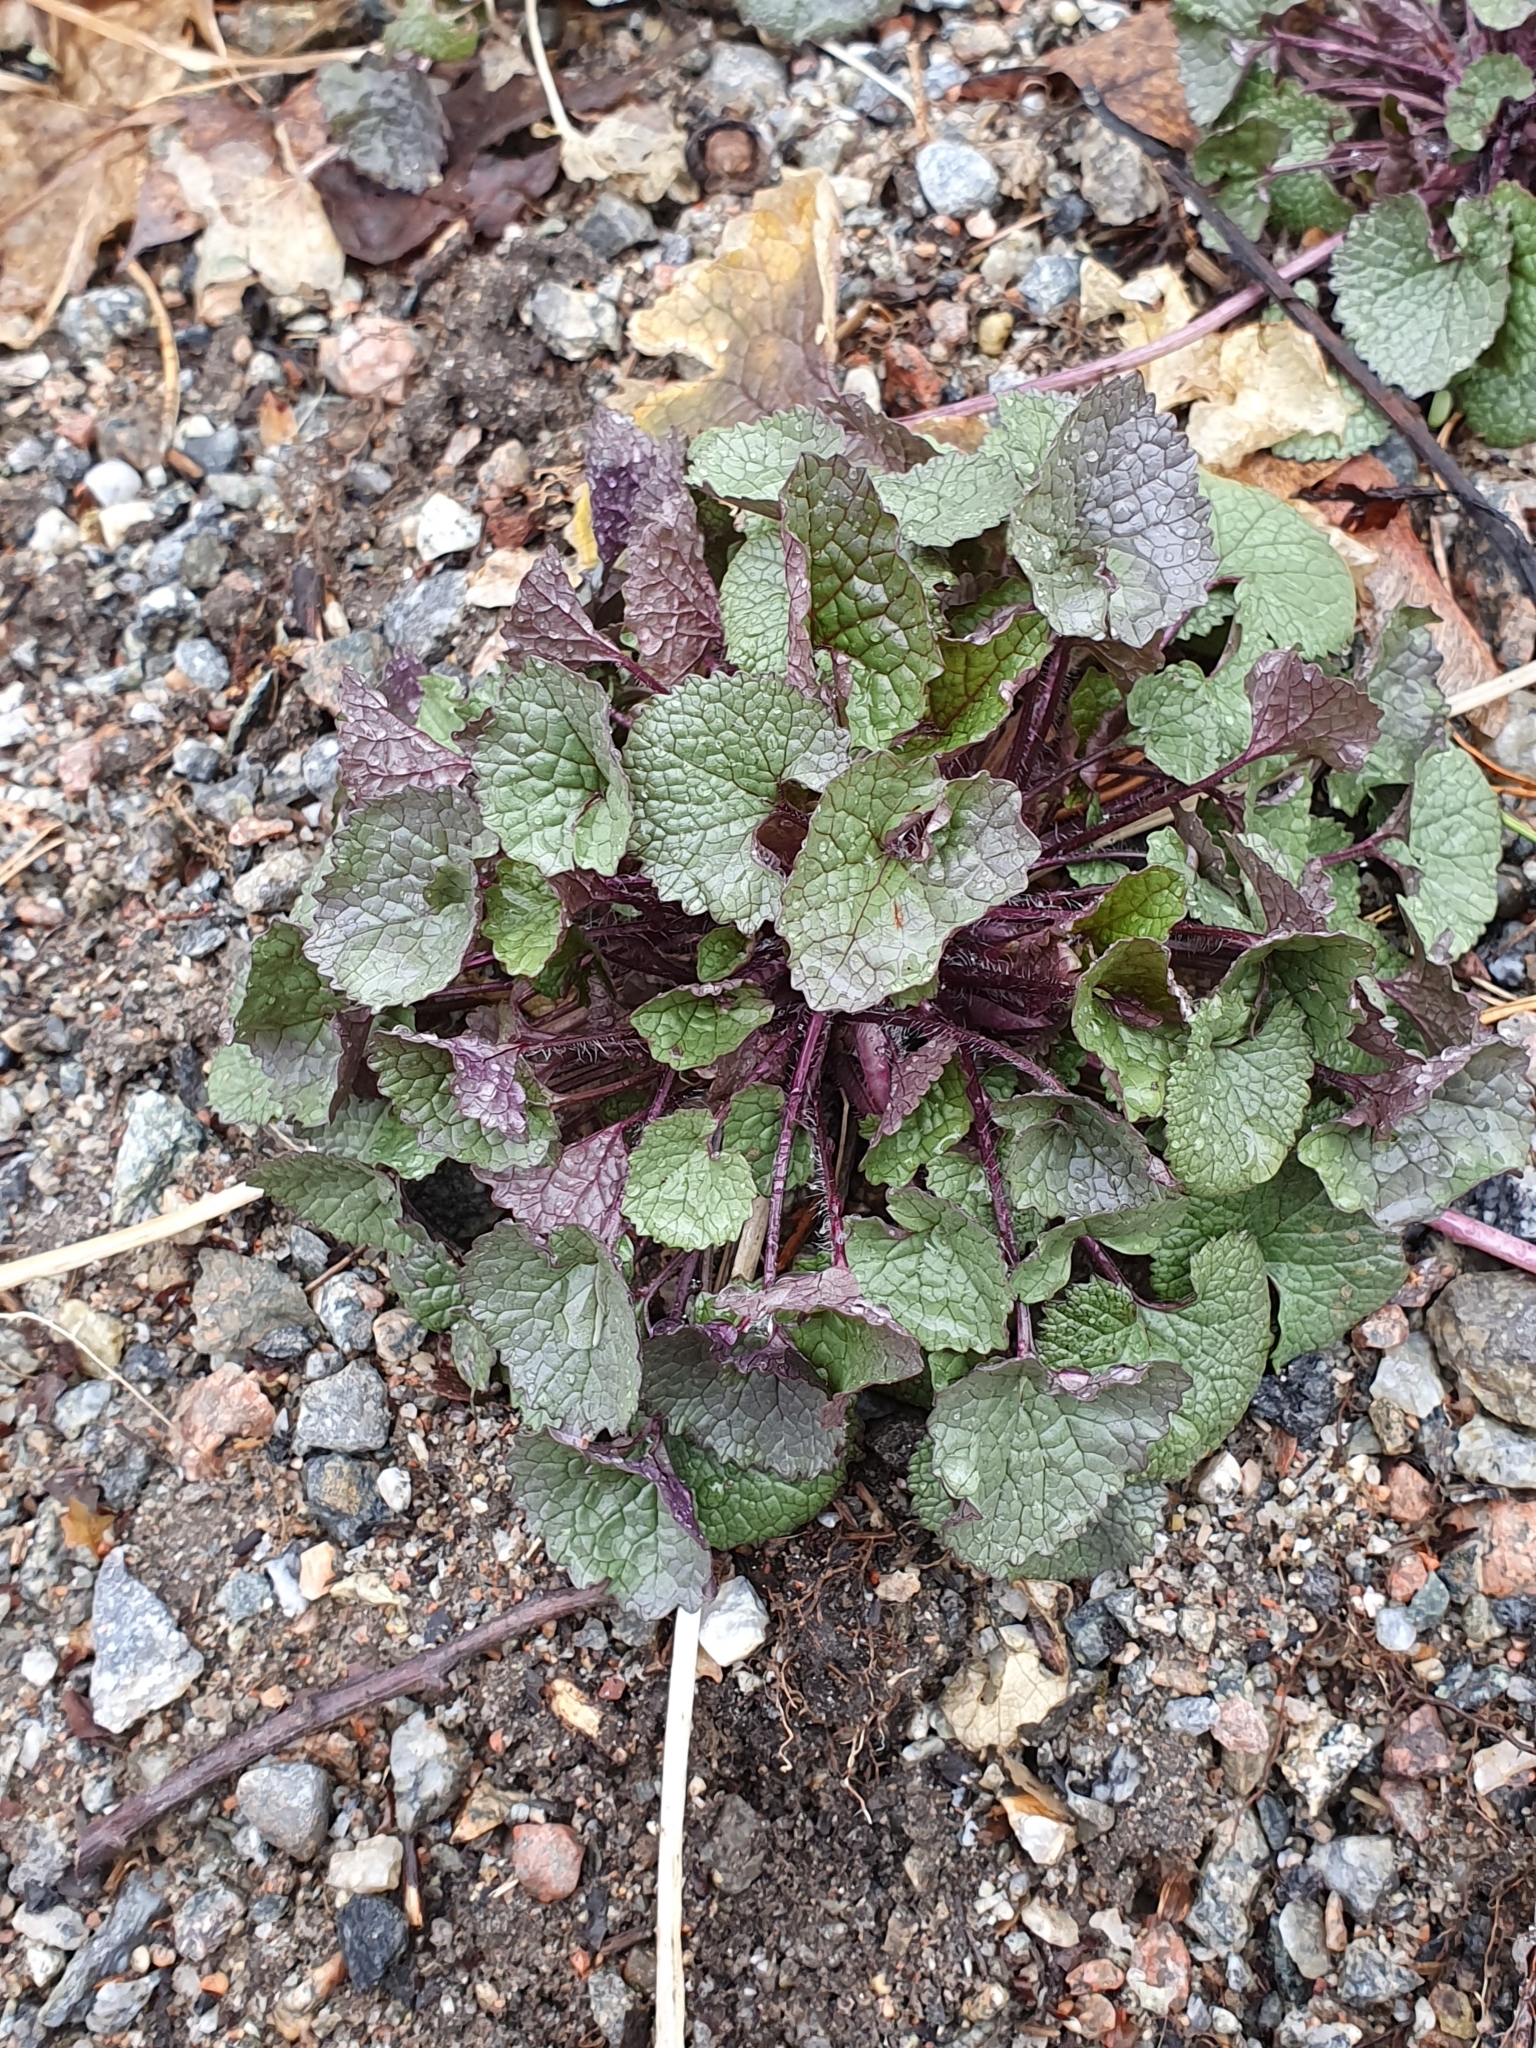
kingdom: Plantae
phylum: Tracheophyta
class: Magnoliopsida
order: Brassicales
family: Brassicaceae
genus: Alliaria
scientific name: Alliaria petiolata
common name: Garlic mustard
